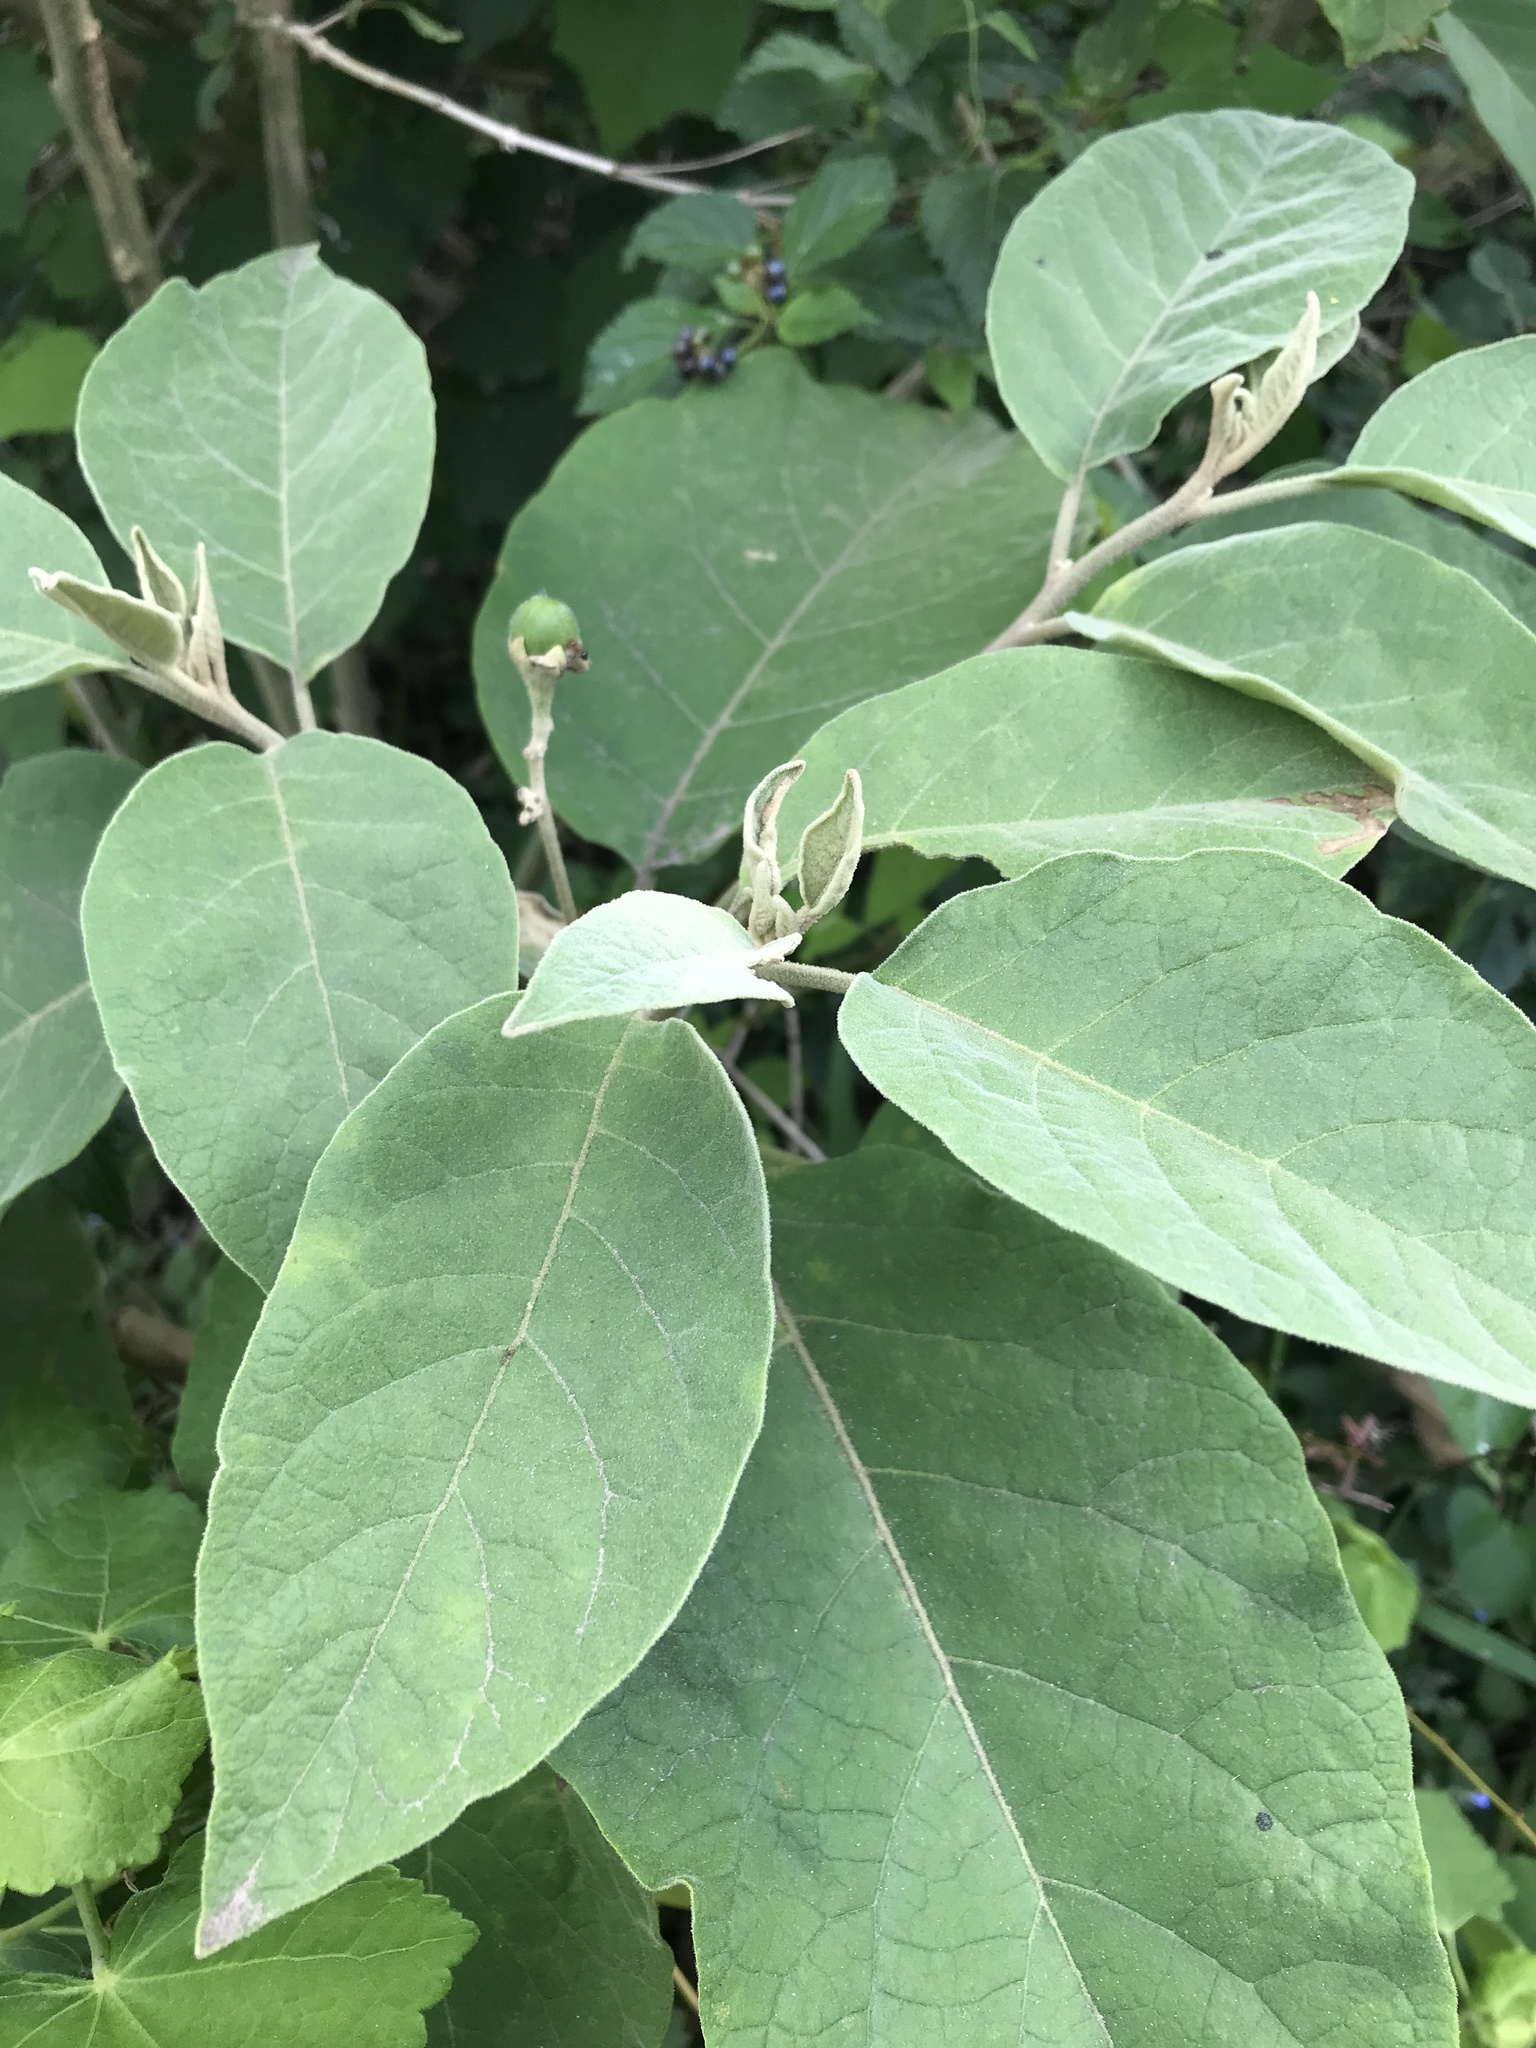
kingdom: Plantae
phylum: Tracheophyta
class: Magnoliopsida
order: Solanales
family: Solanaceae
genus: Solanum
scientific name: Solanum erianthum
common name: Tobacco-tree
